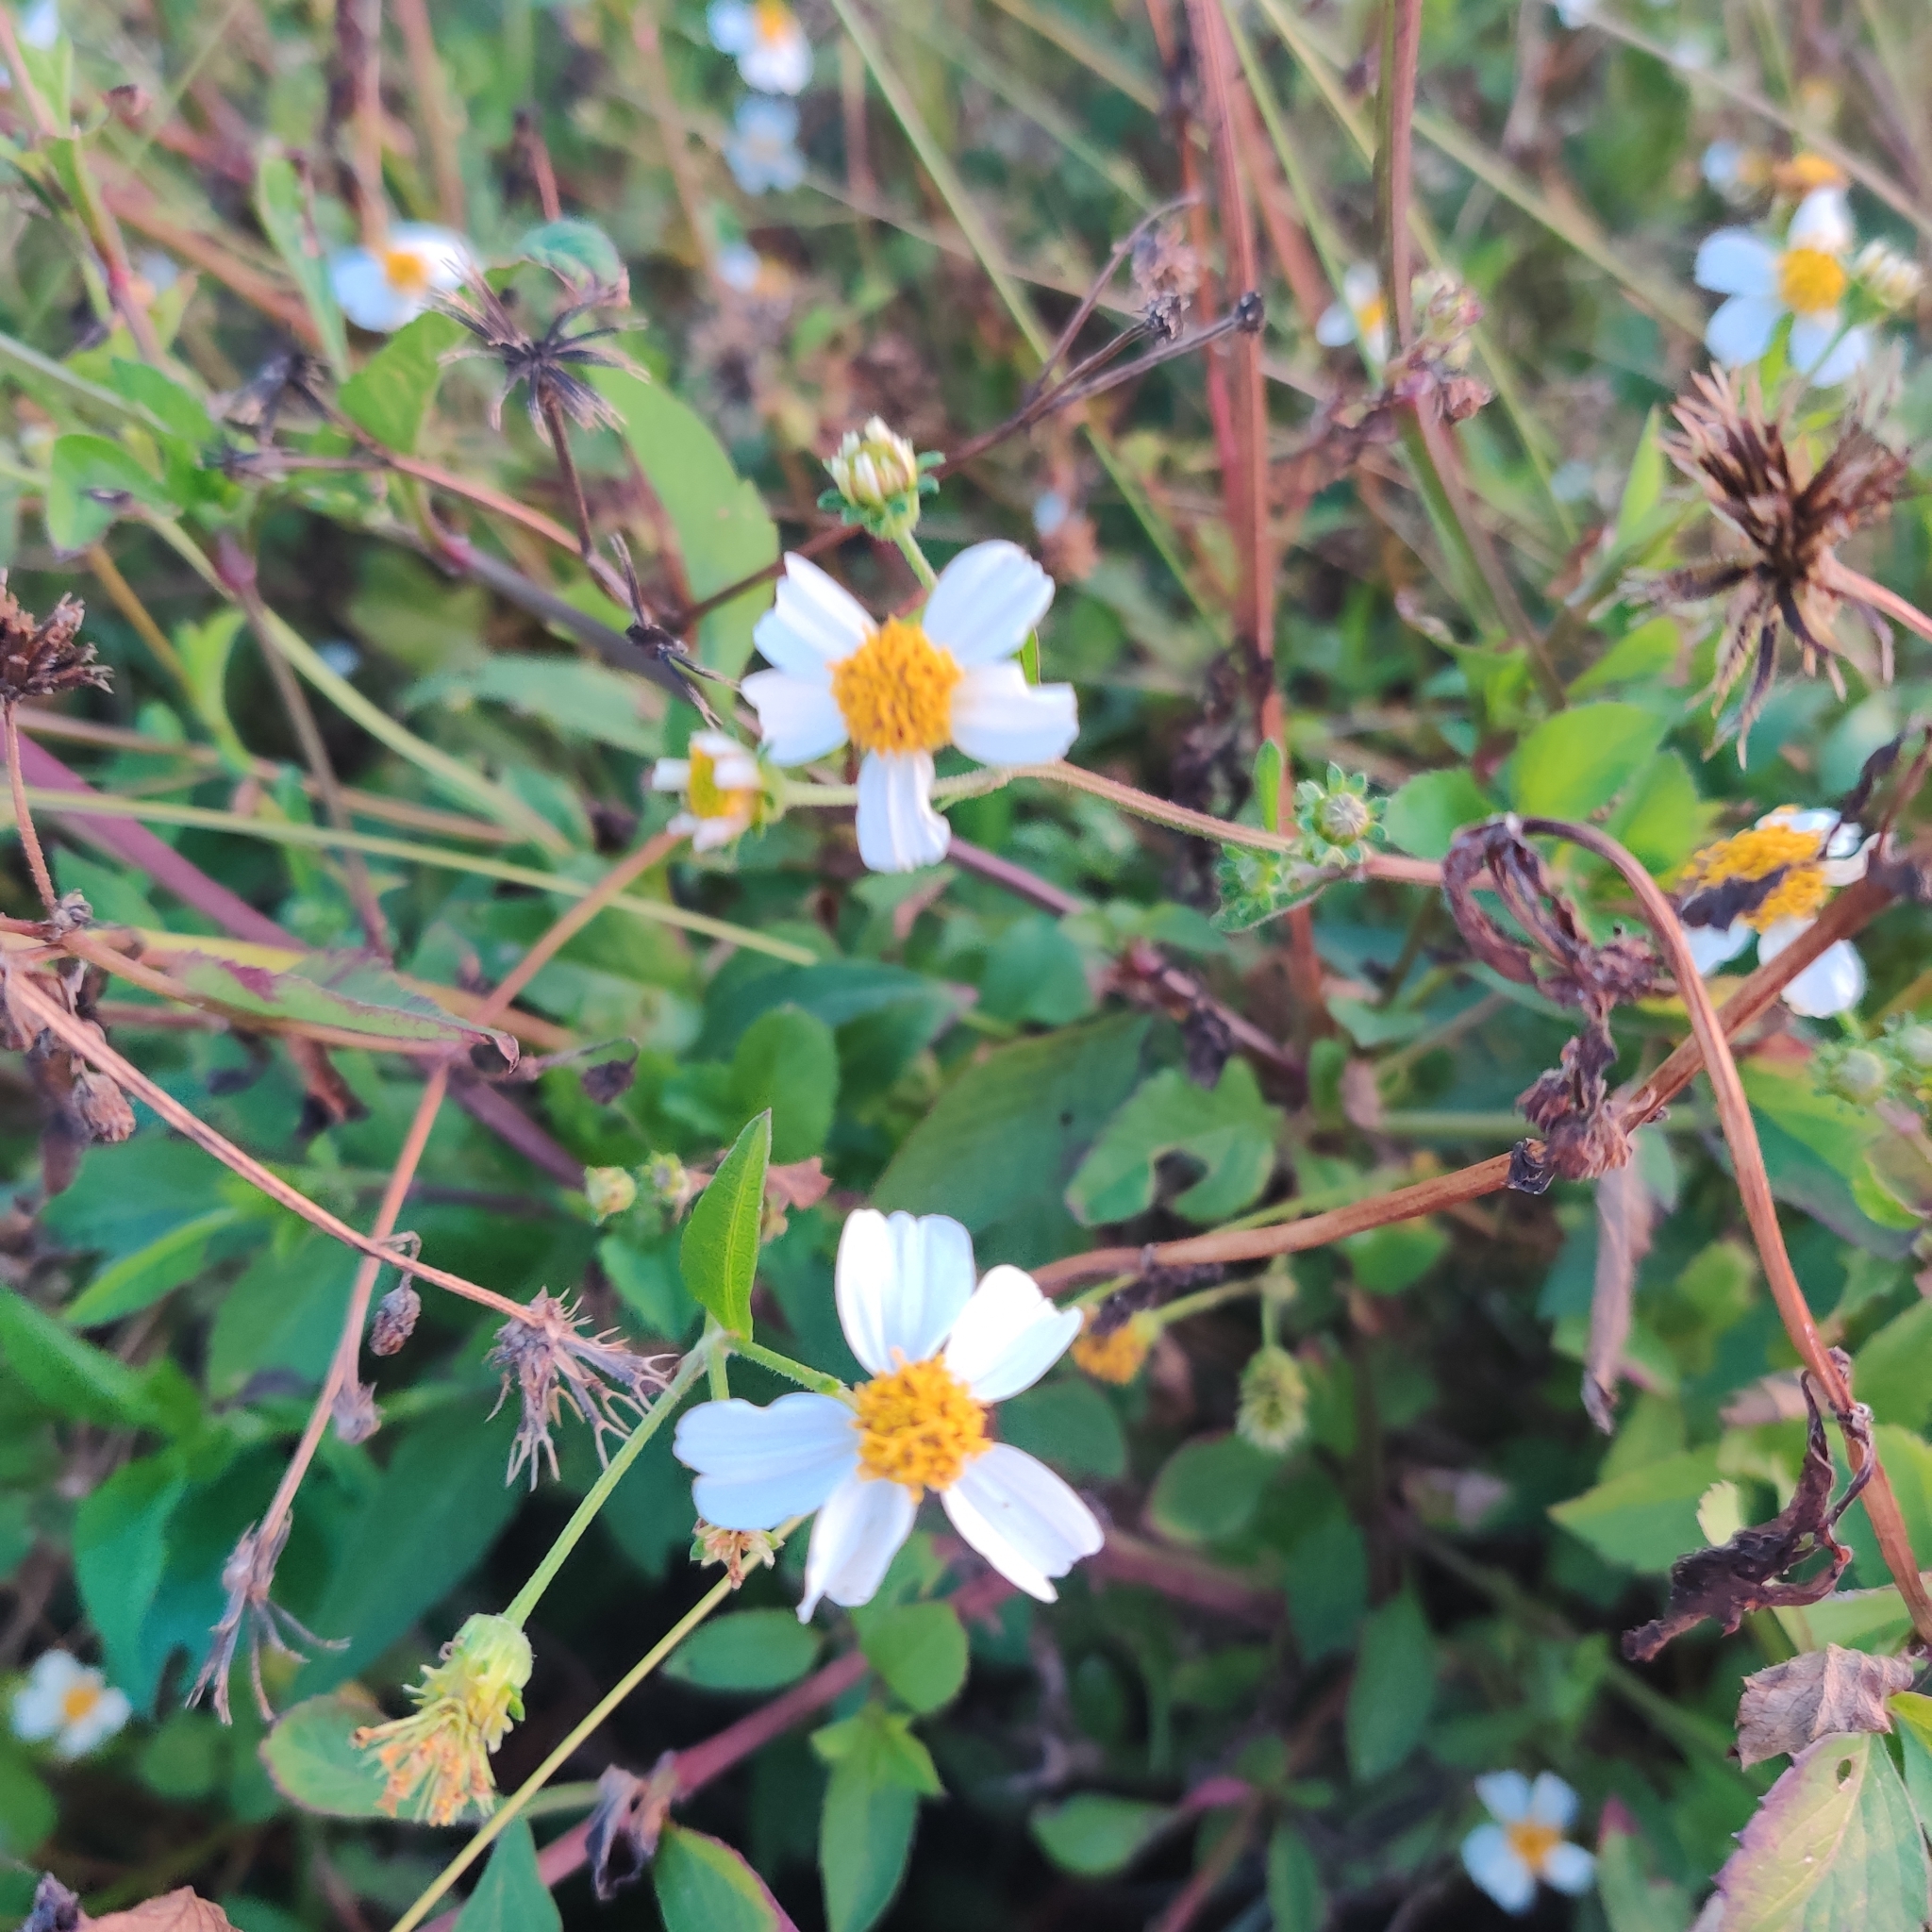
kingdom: Plantae
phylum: Tracheophyta
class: Magnoliopsida
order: Asterales
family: Asteraceae
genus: Bidens
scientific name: Bidens alba
